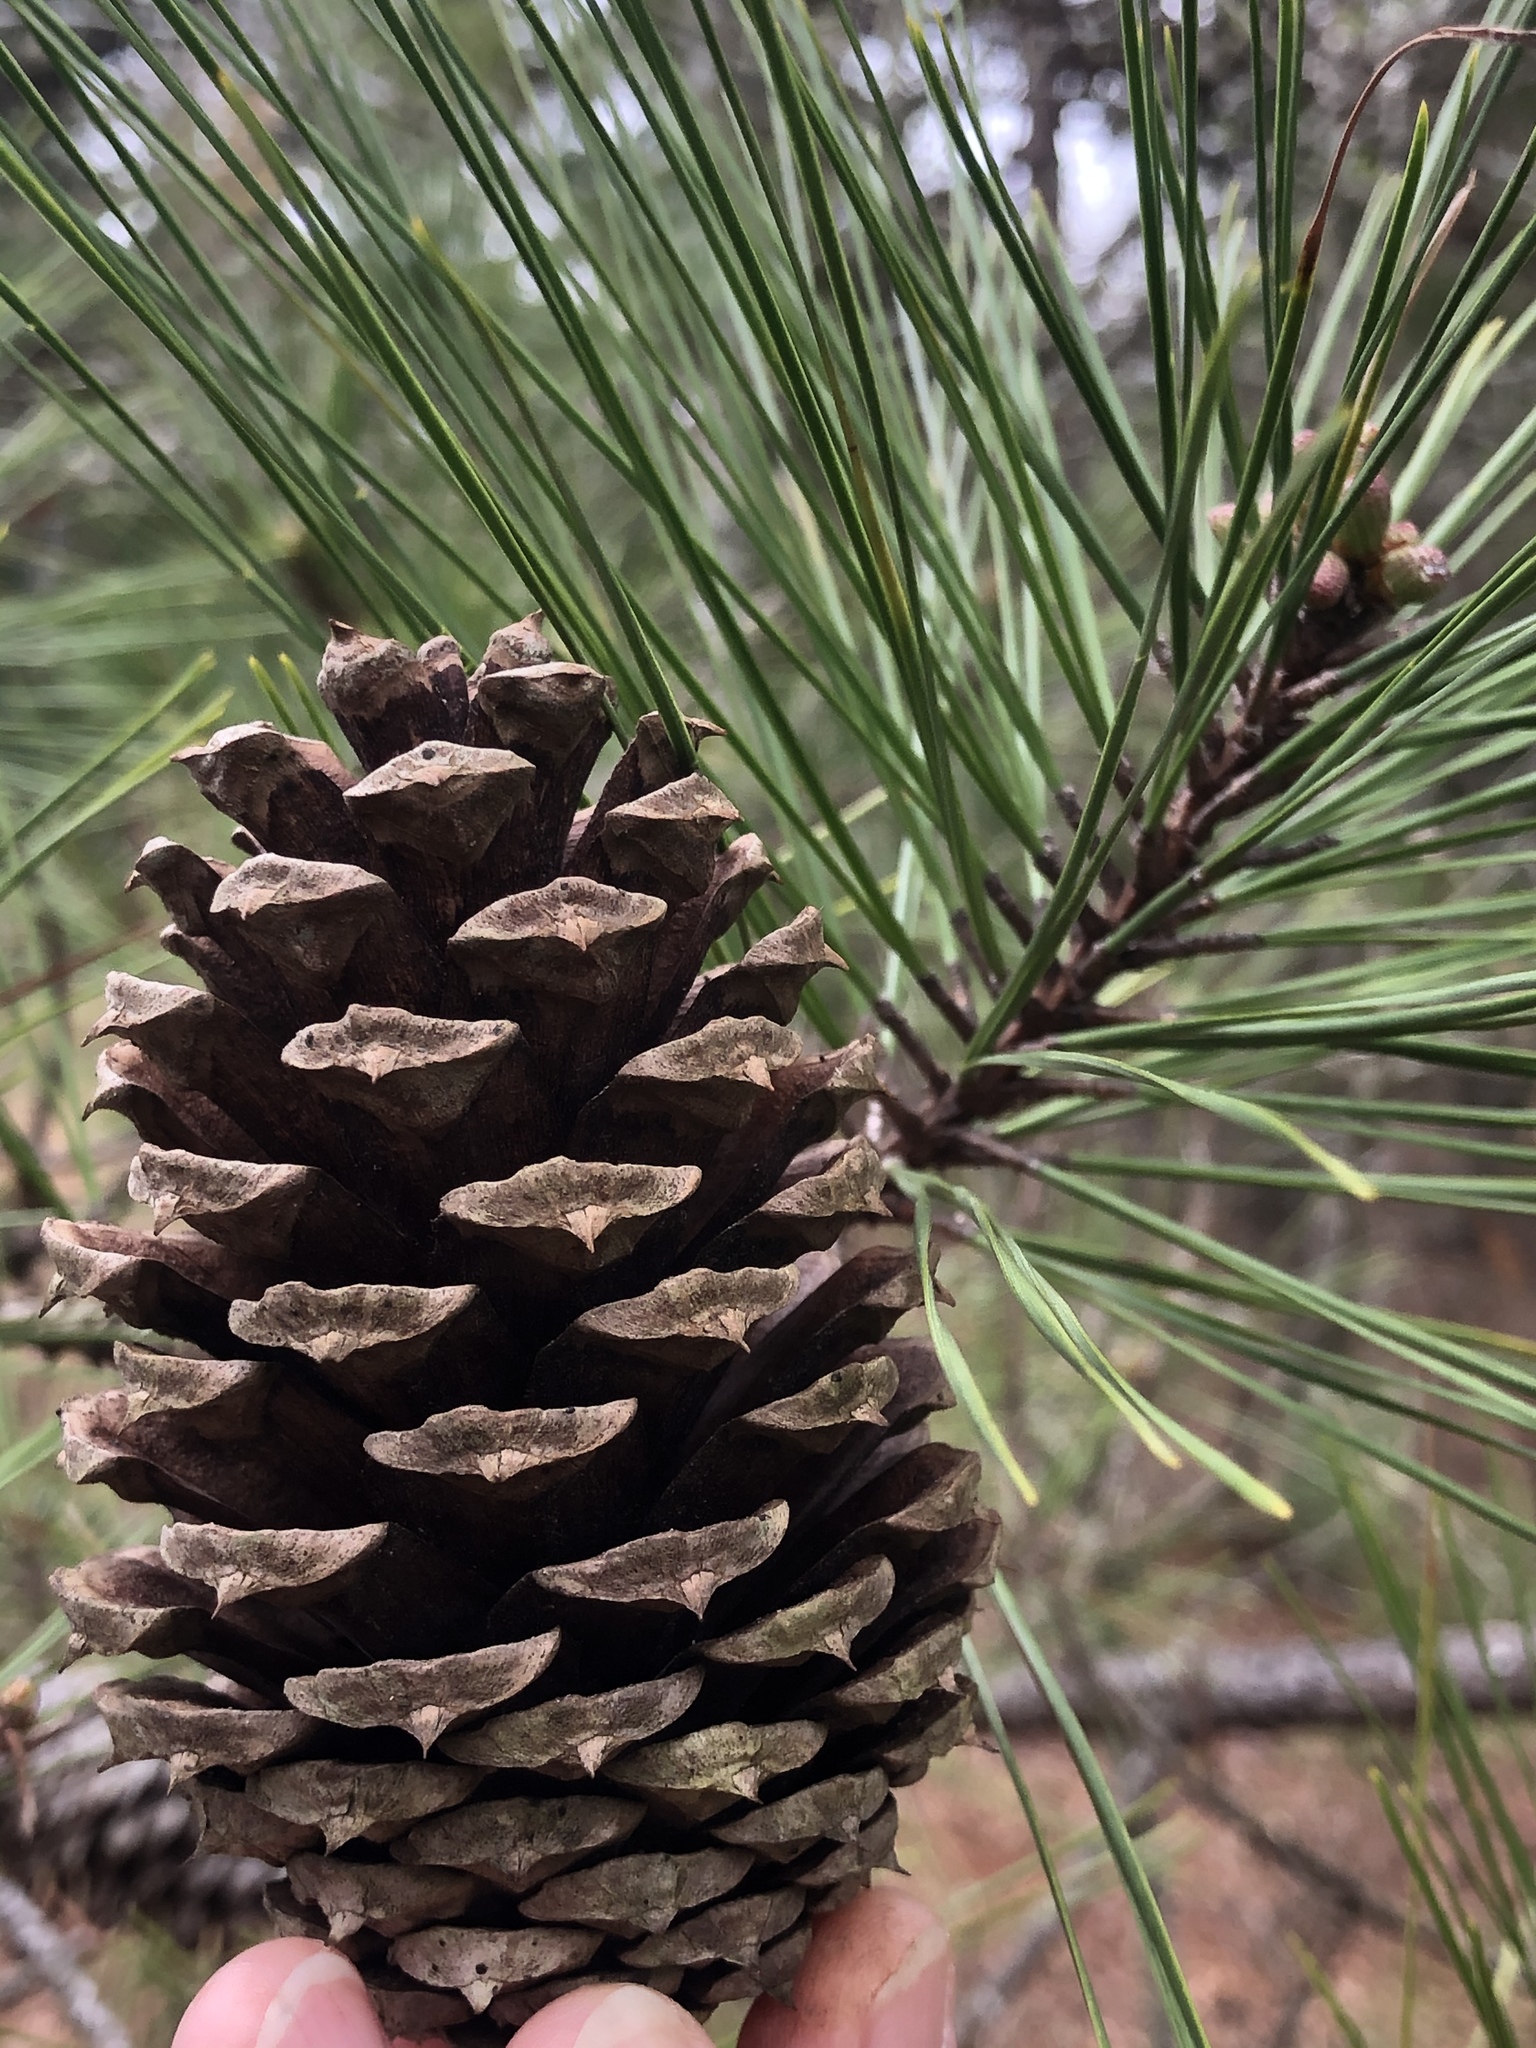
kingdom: Plantae
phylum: Tracheophyta
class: Pinopsida
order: Pinales
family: Pinaceae
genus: Pinus
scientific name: Pinus taeda
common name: Loblolly pine
